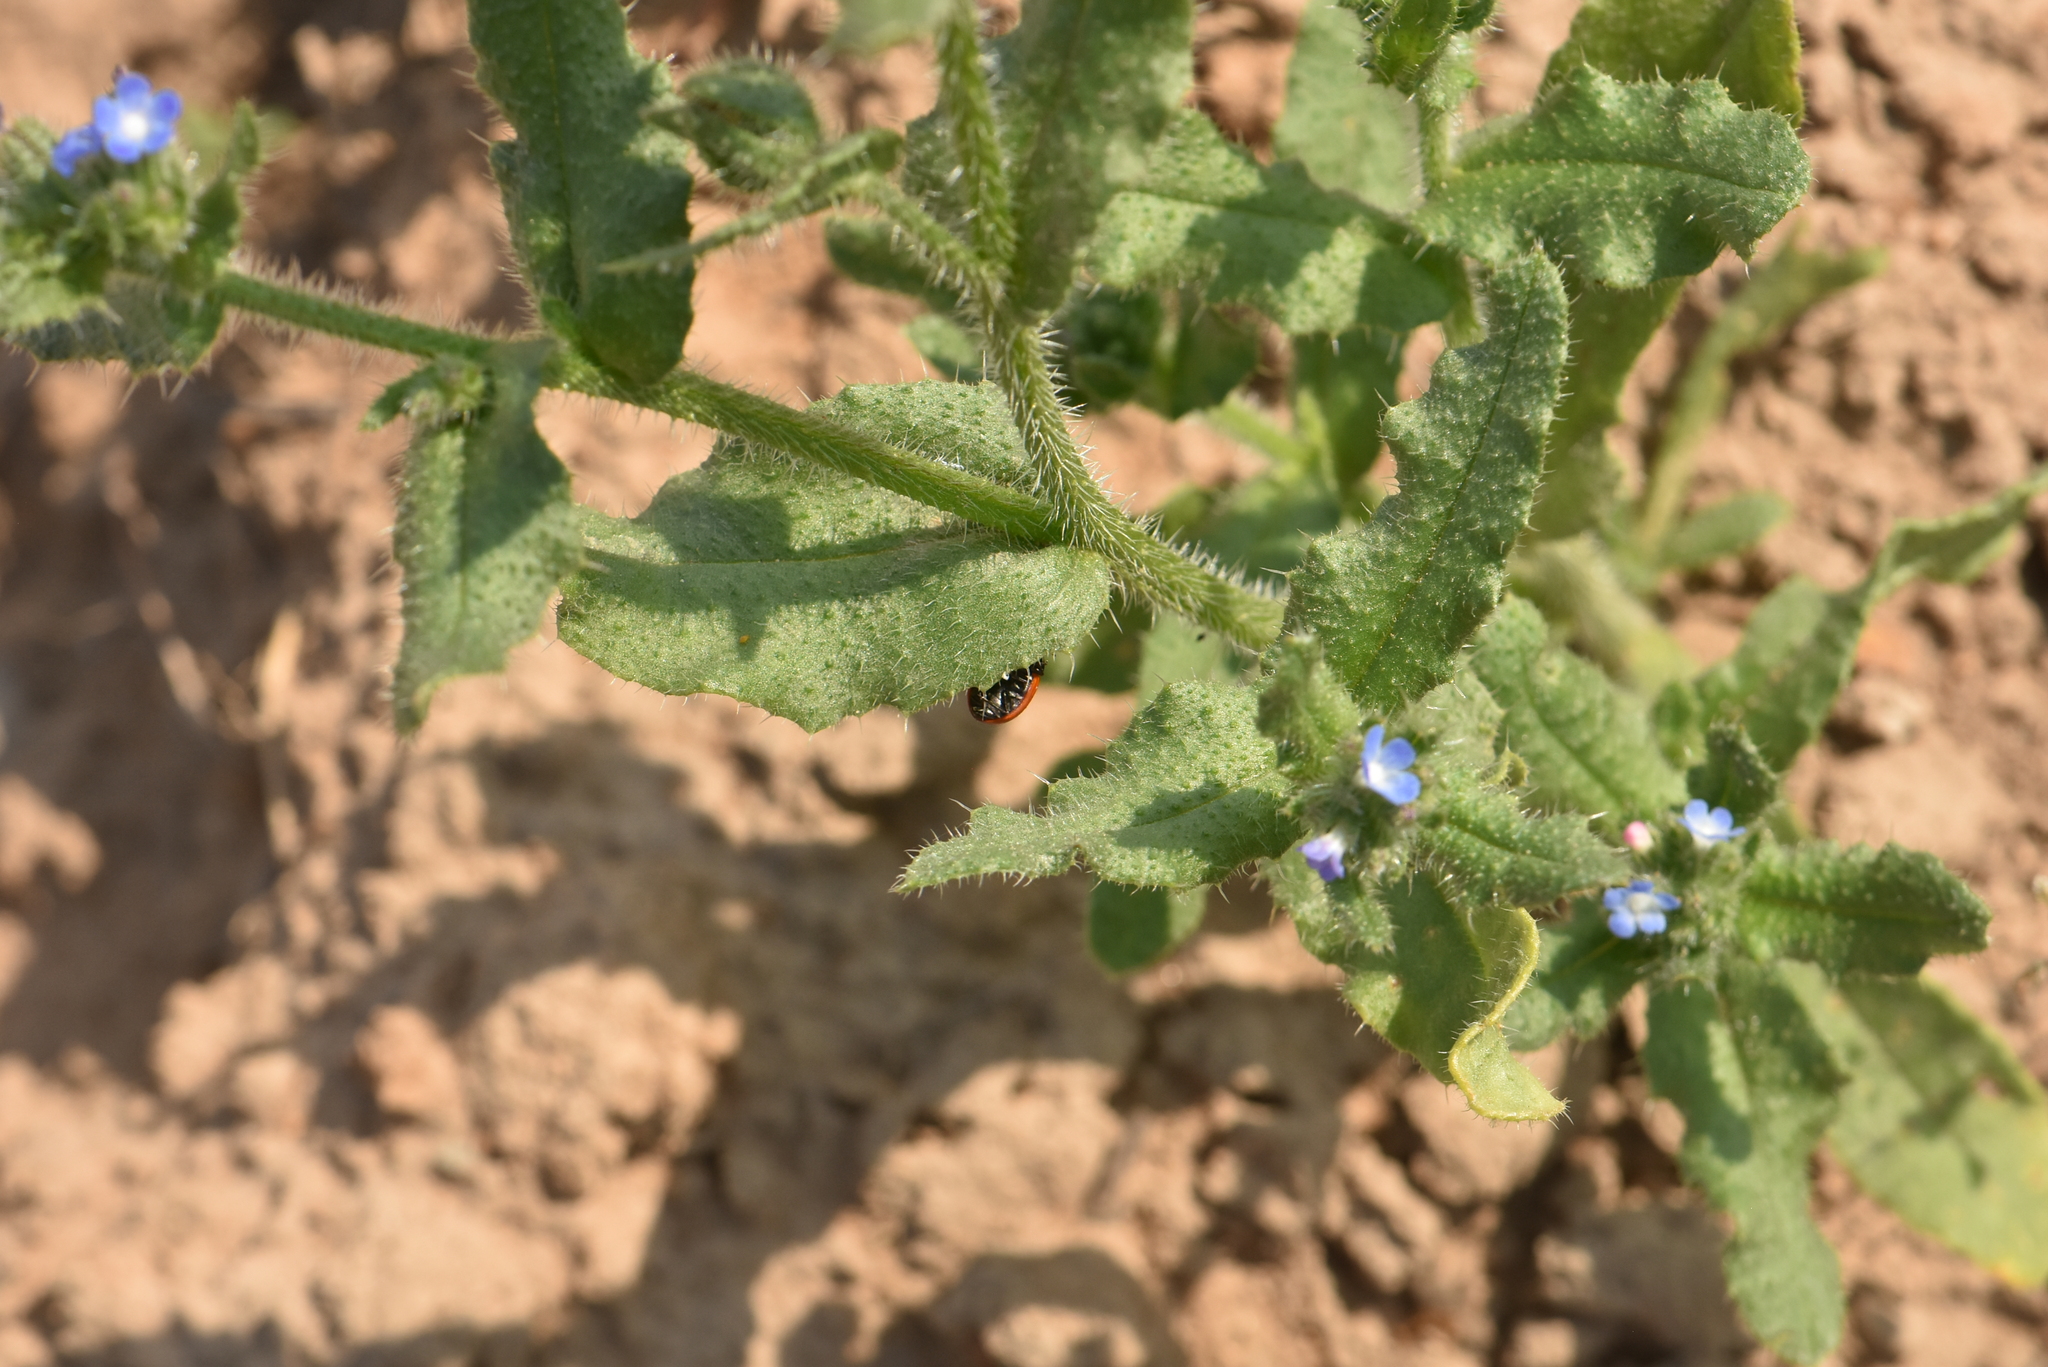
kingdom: Plantae
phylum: Tracheophyta
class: Magnoliopsida
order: Boraginales
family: Boraginaceae
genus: Lycopsis
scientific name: Lycopsis arvensis
